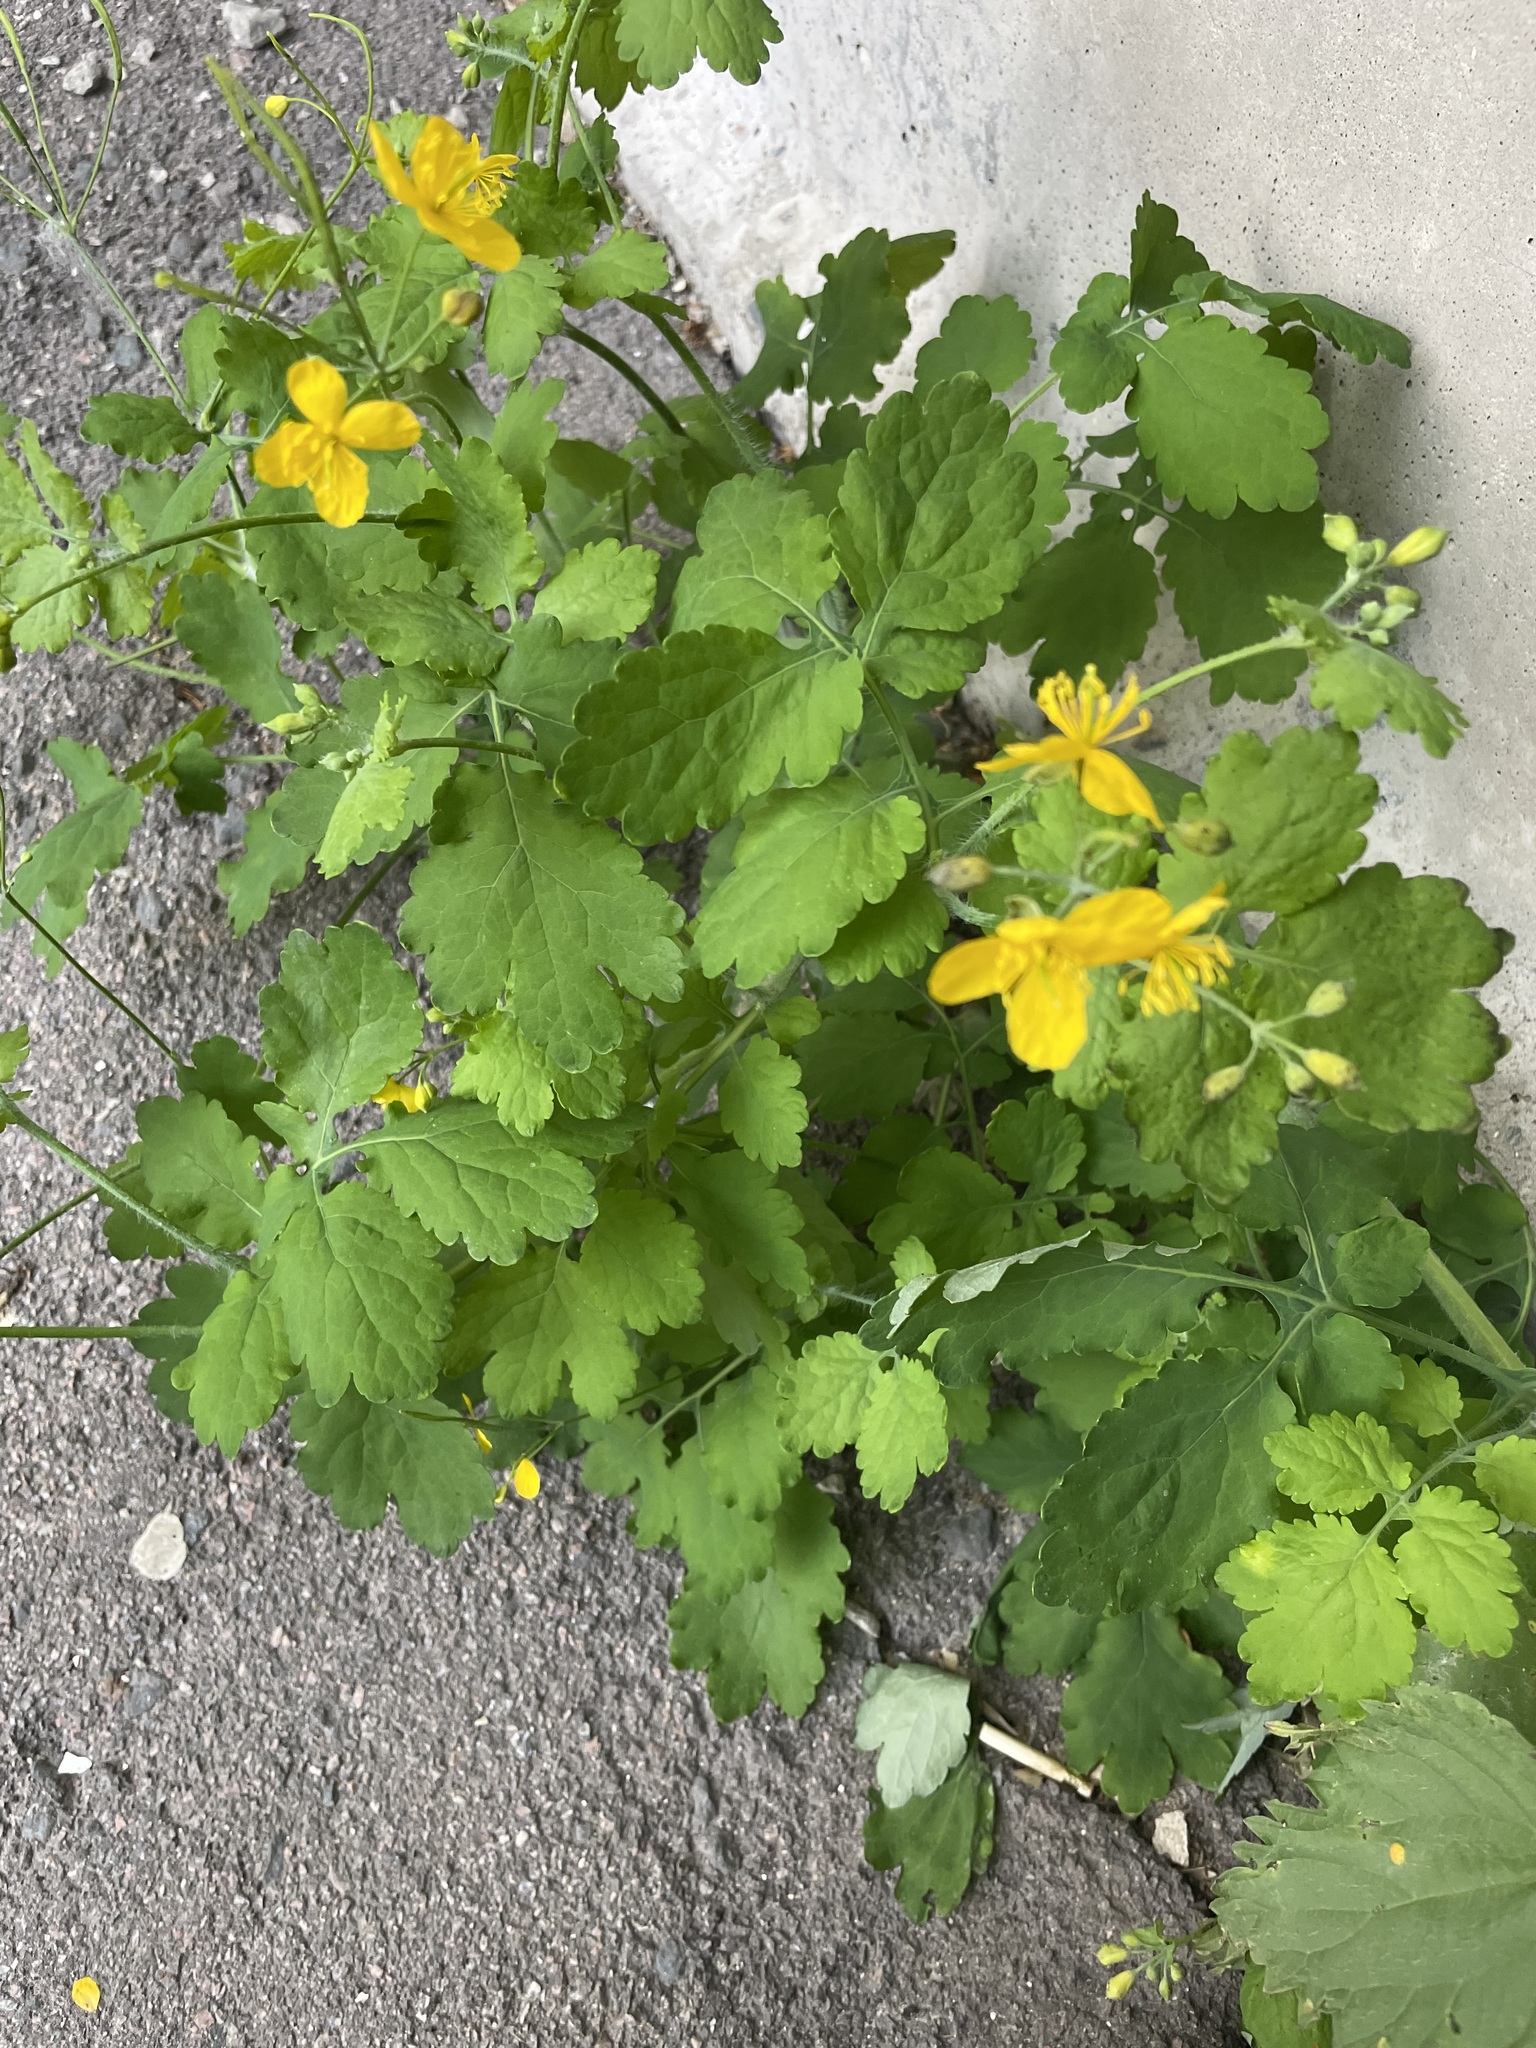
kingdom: Plantae
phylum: Tracheophyta
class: Magnoliopsida
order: Ranunculales
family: Papaveraceae
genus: Chelidonium
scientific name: Chelidonium majus
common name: Greater celandine
